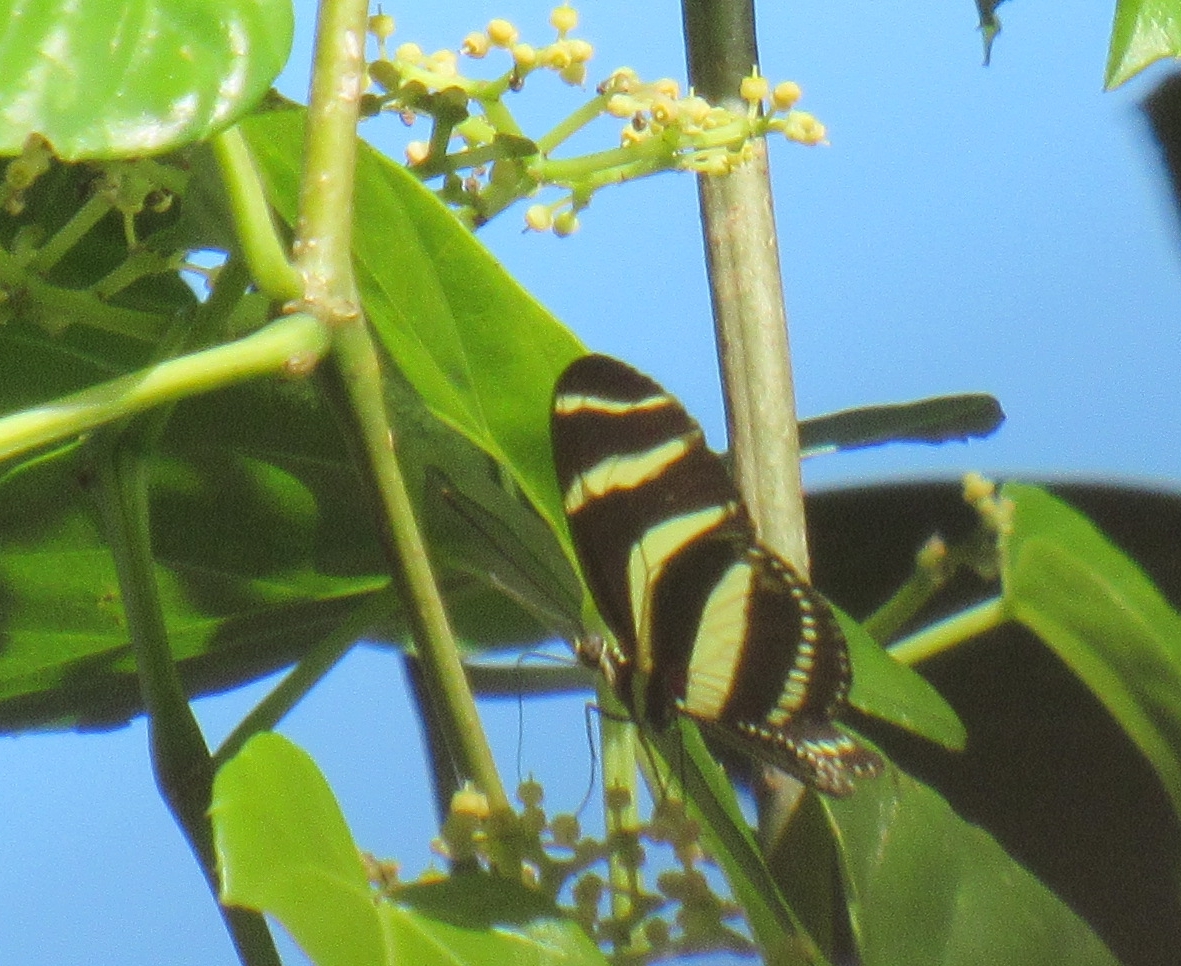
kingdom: Animalia
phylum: Arthropoda
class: Insecta
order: Lepidoptera
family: Nymphalidae
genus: Heliconius
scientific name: Heliconius charithonia
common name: Zebra long wing
